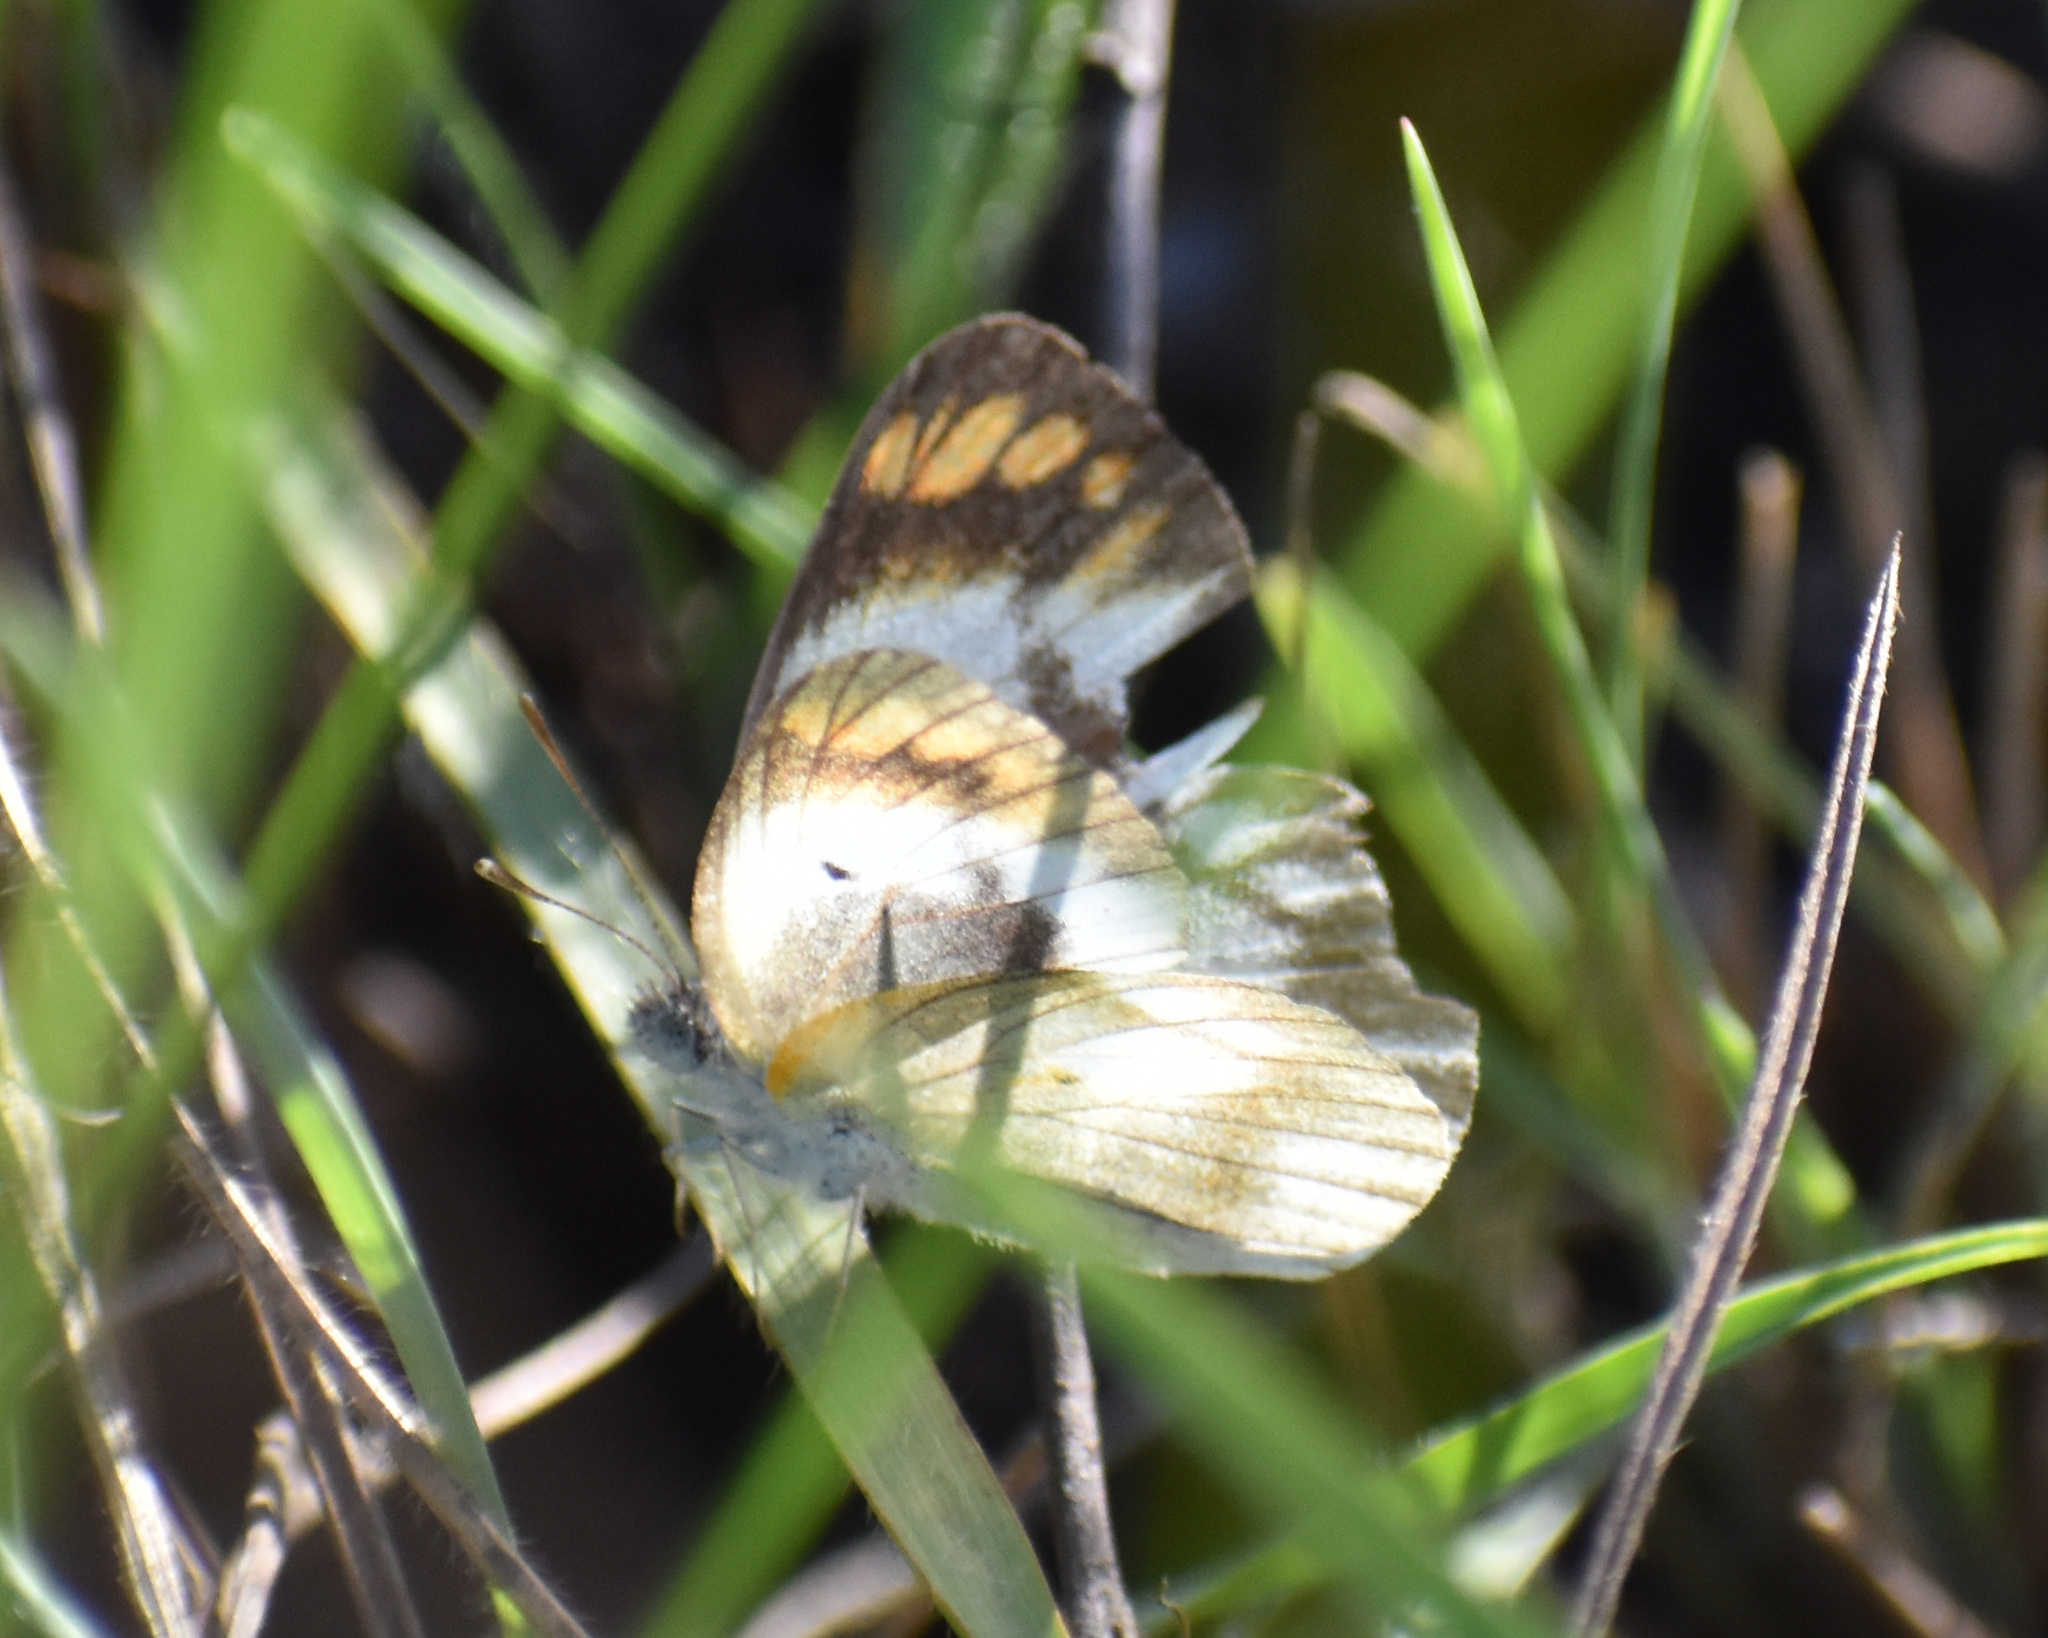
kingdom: Animalia
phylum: Arthropoda
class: Insecta
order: Lepidoptera
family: Pieridae
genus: Colotis
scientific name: Colotis antevippe
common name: Large orange tip
